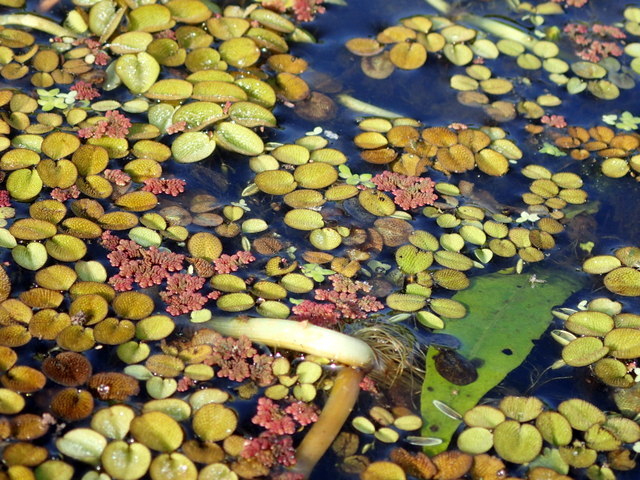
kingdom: Plantae
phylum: Tracheophyta
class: Polypodiopsida
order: Salviniales
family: Salviniaceae
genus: Salvinia
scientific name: Salvinia minima
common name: Water spangles
